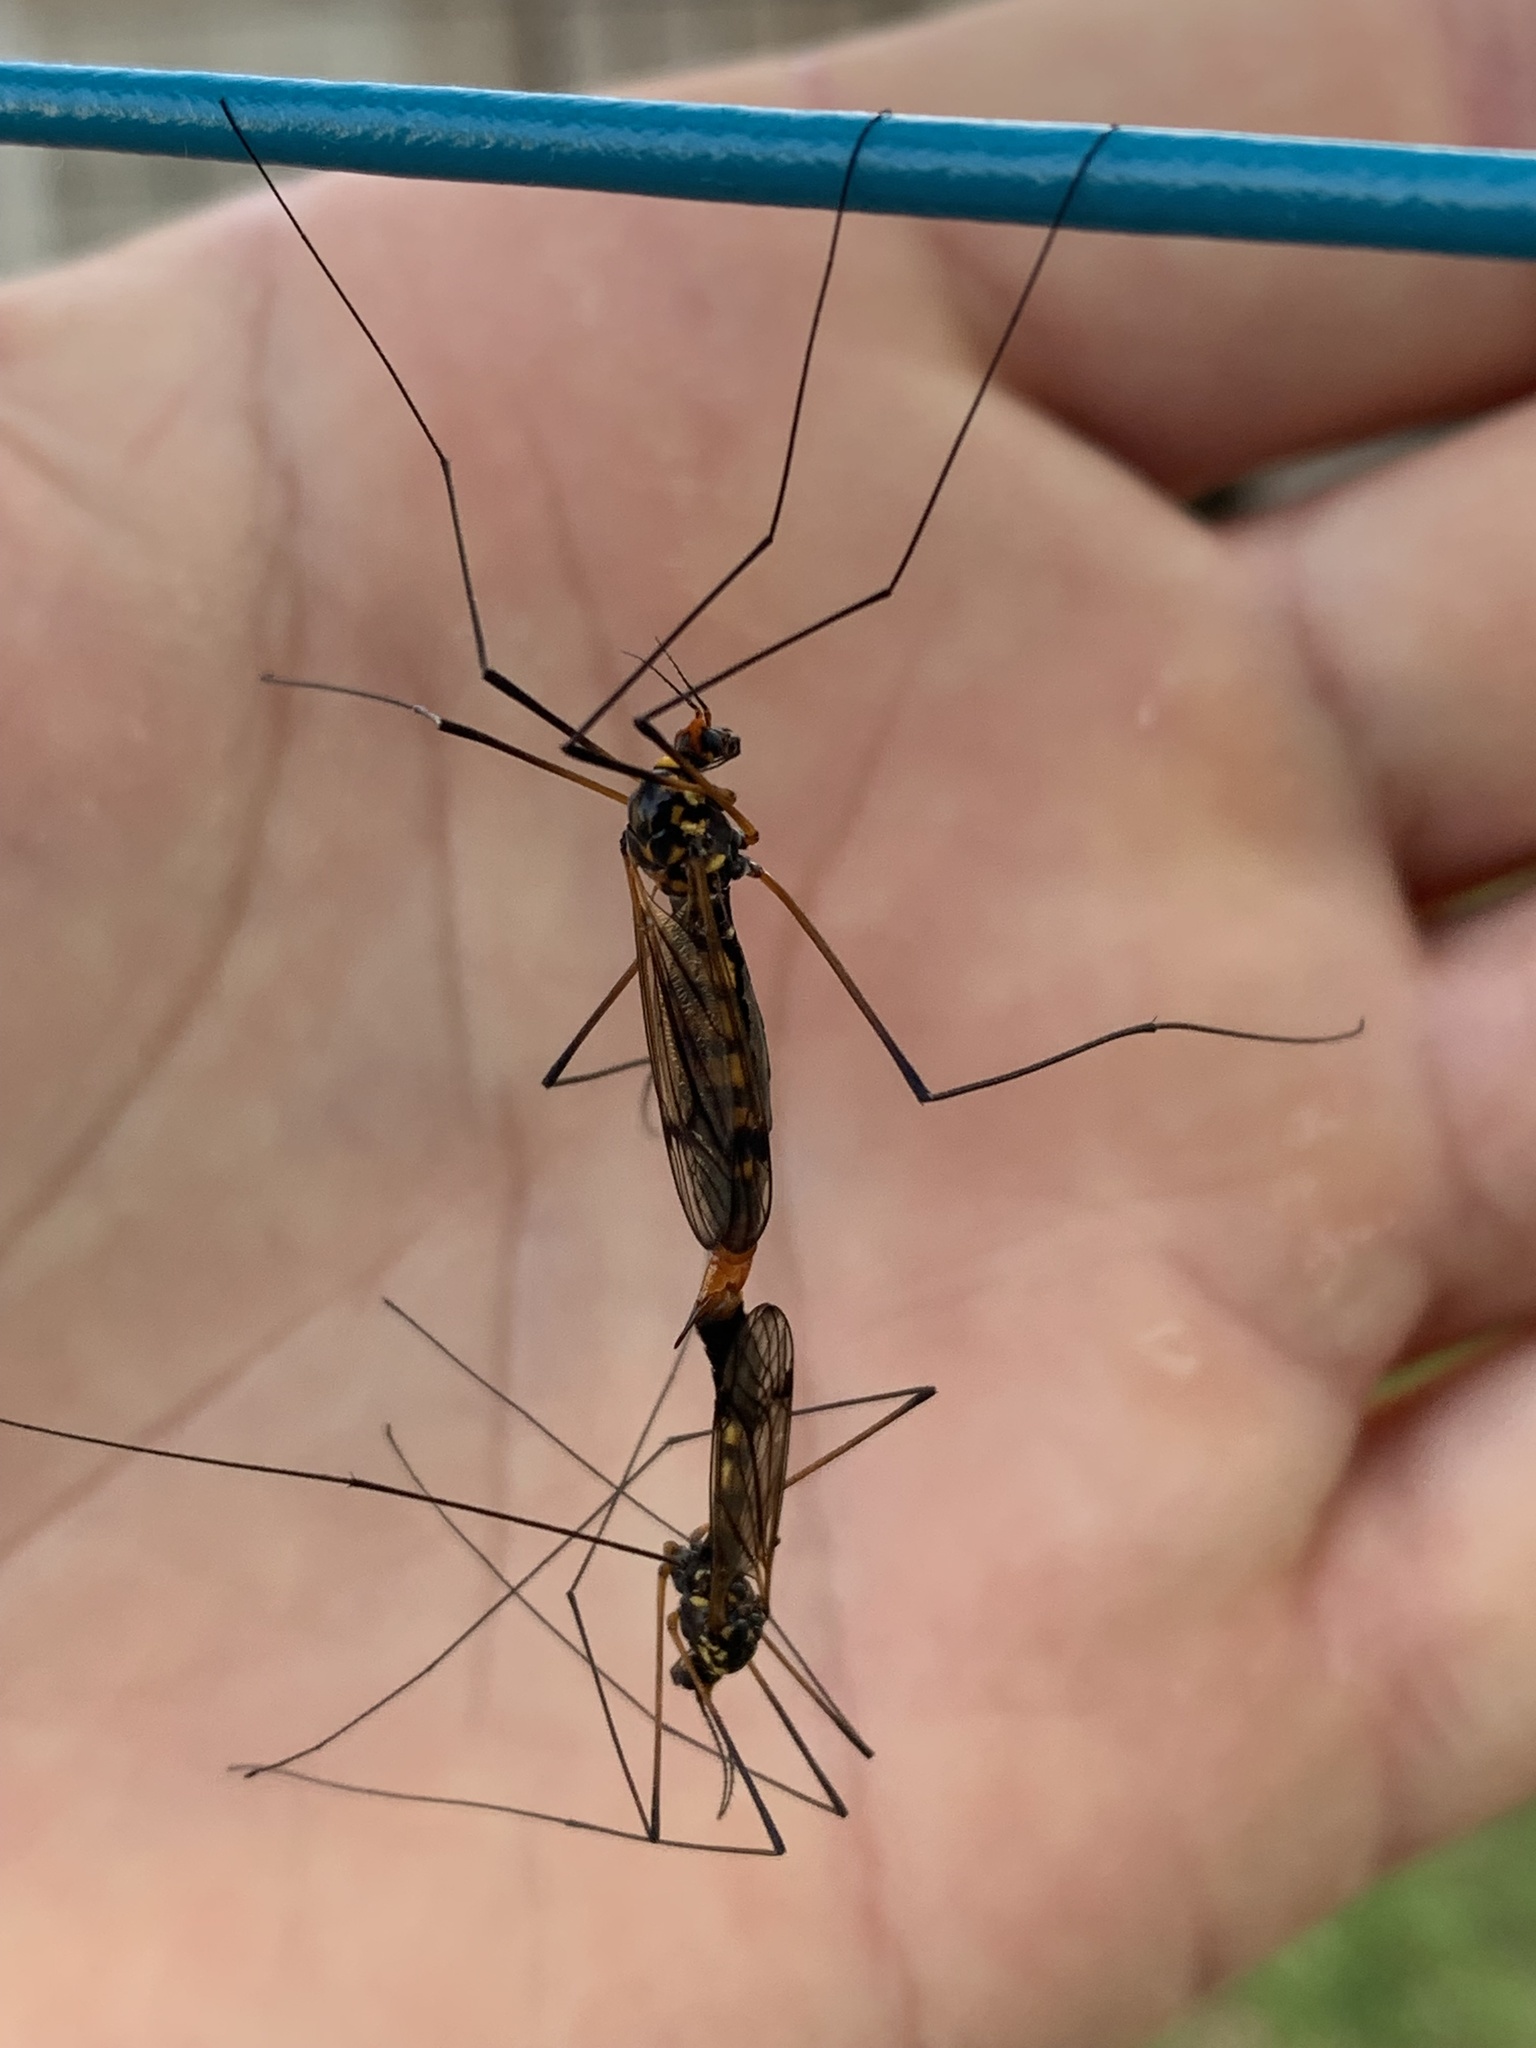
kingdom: Animalia
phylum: Arthropoda
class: Insecta
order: Diptera
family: Tipulidae
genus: Nephrotoma
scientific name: Nephrotoma crocata
